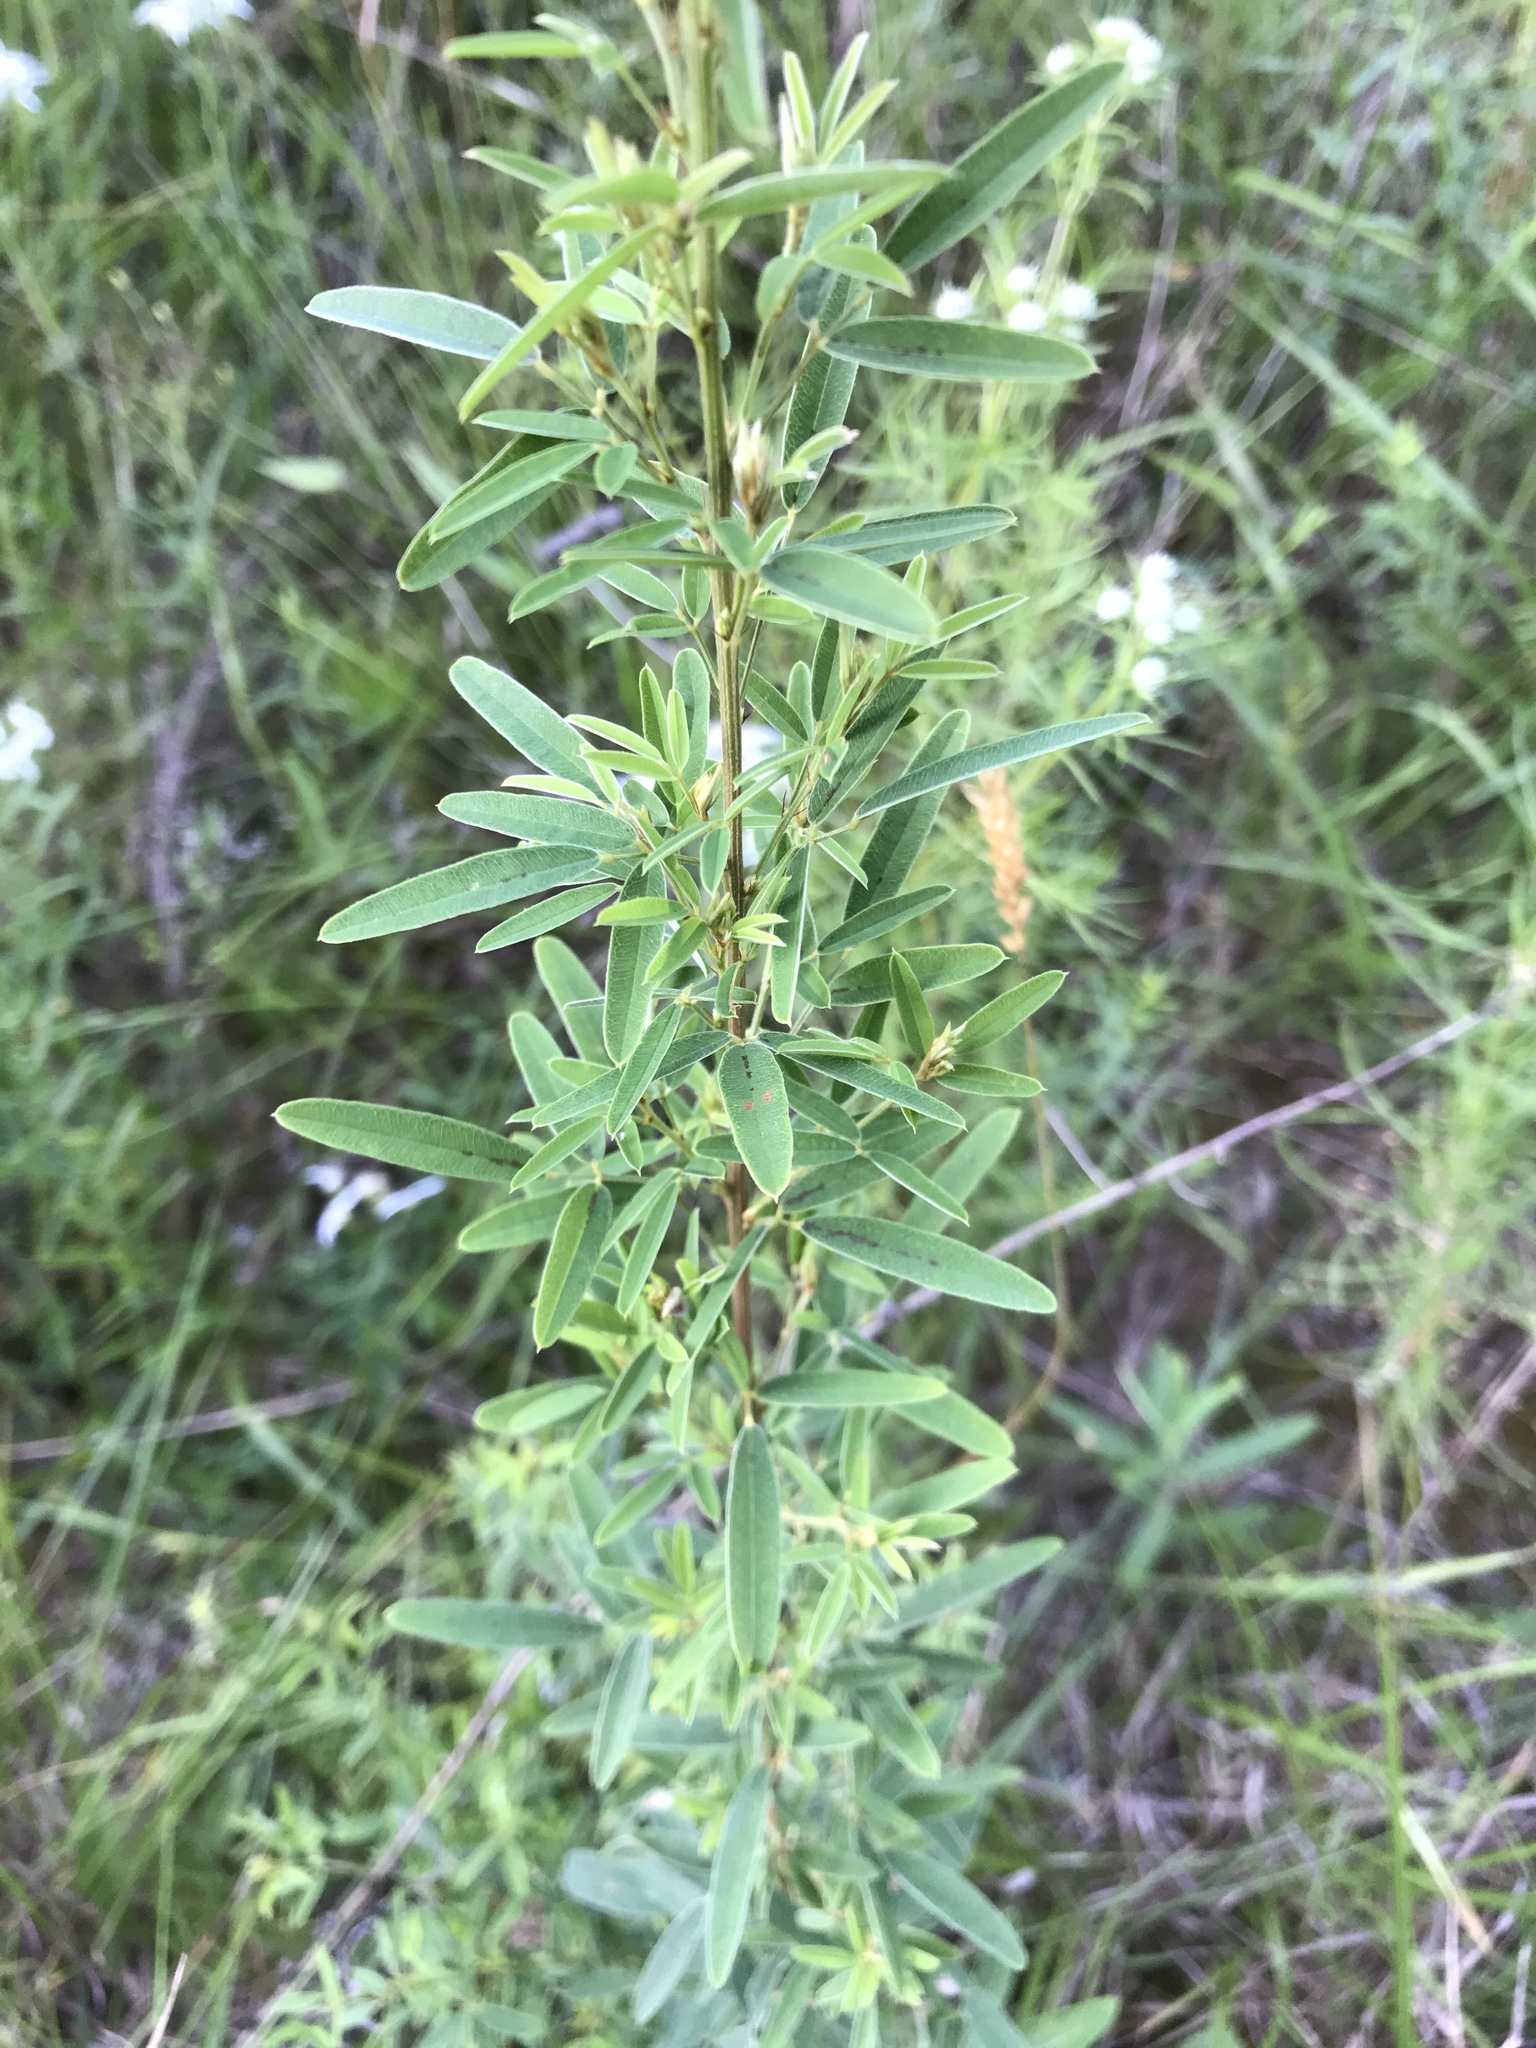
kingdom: Plantae
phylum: Tracheophyta
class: Magnoliopsida
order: Fabales
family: Fabaceae
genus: Lespedeza
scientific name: Lespedeza virginica
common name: Slender bush-clover
